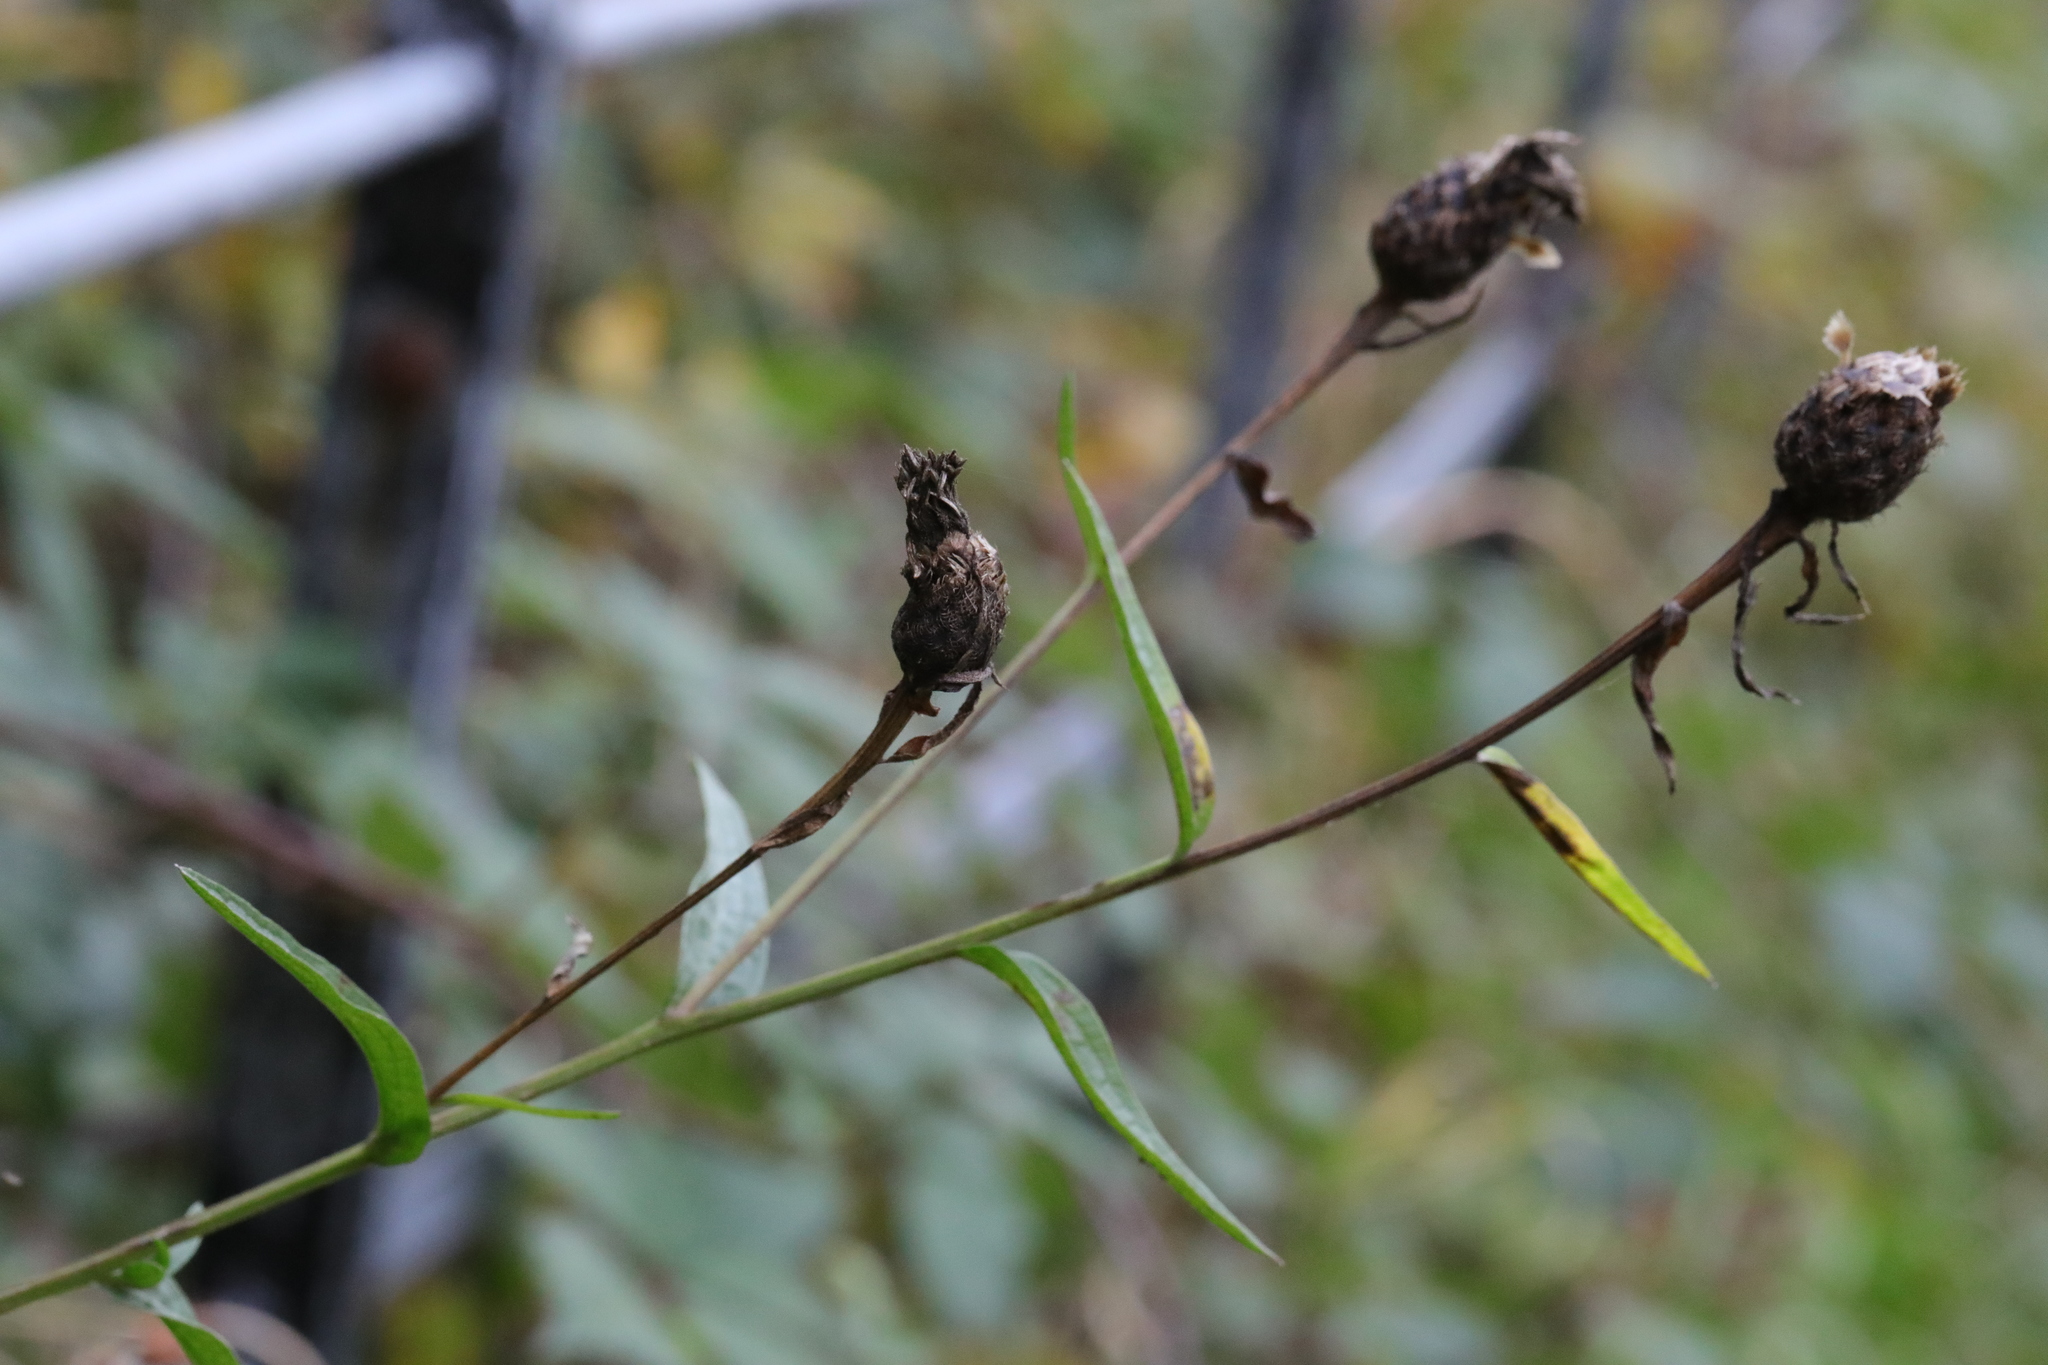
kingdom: Plantae
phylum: Tracheophyta
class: Magnoliopsida
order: Asterales
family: Asteraceae
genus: Centaurea
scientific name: Centaurea nigra
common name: Lesser knapweed
